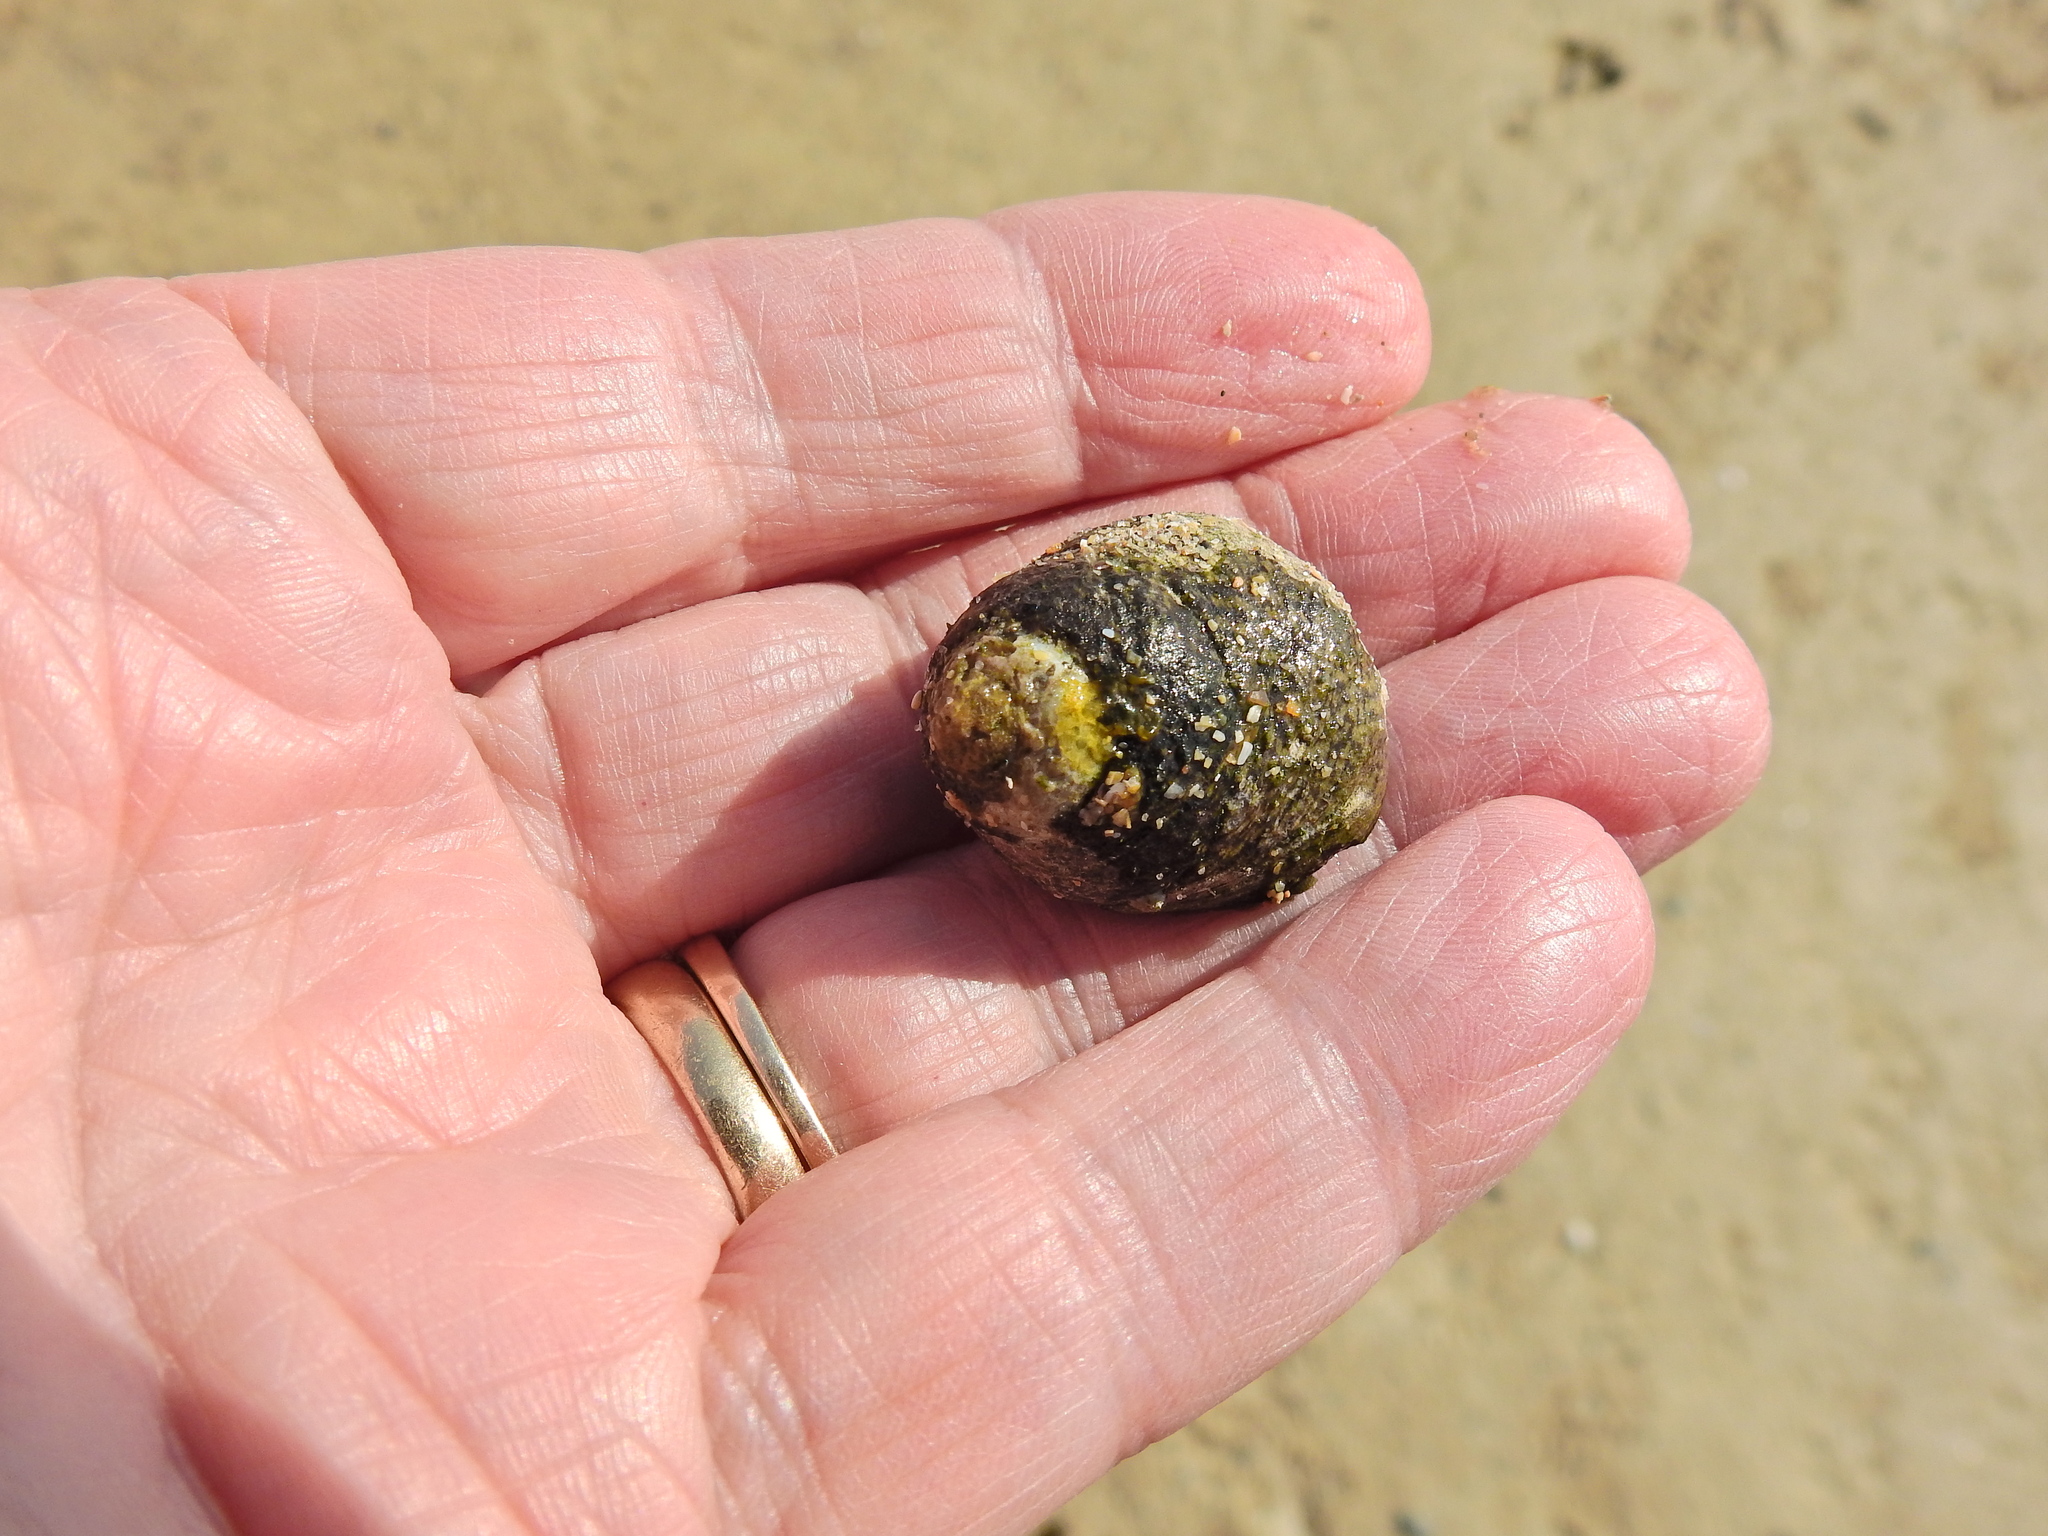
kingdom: Animalia
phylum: Mollusca
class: Gastropoda
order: Trochida
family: Trochidae
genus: Phorcus
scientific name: Phorcus lineatus
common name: Toothed top shell
